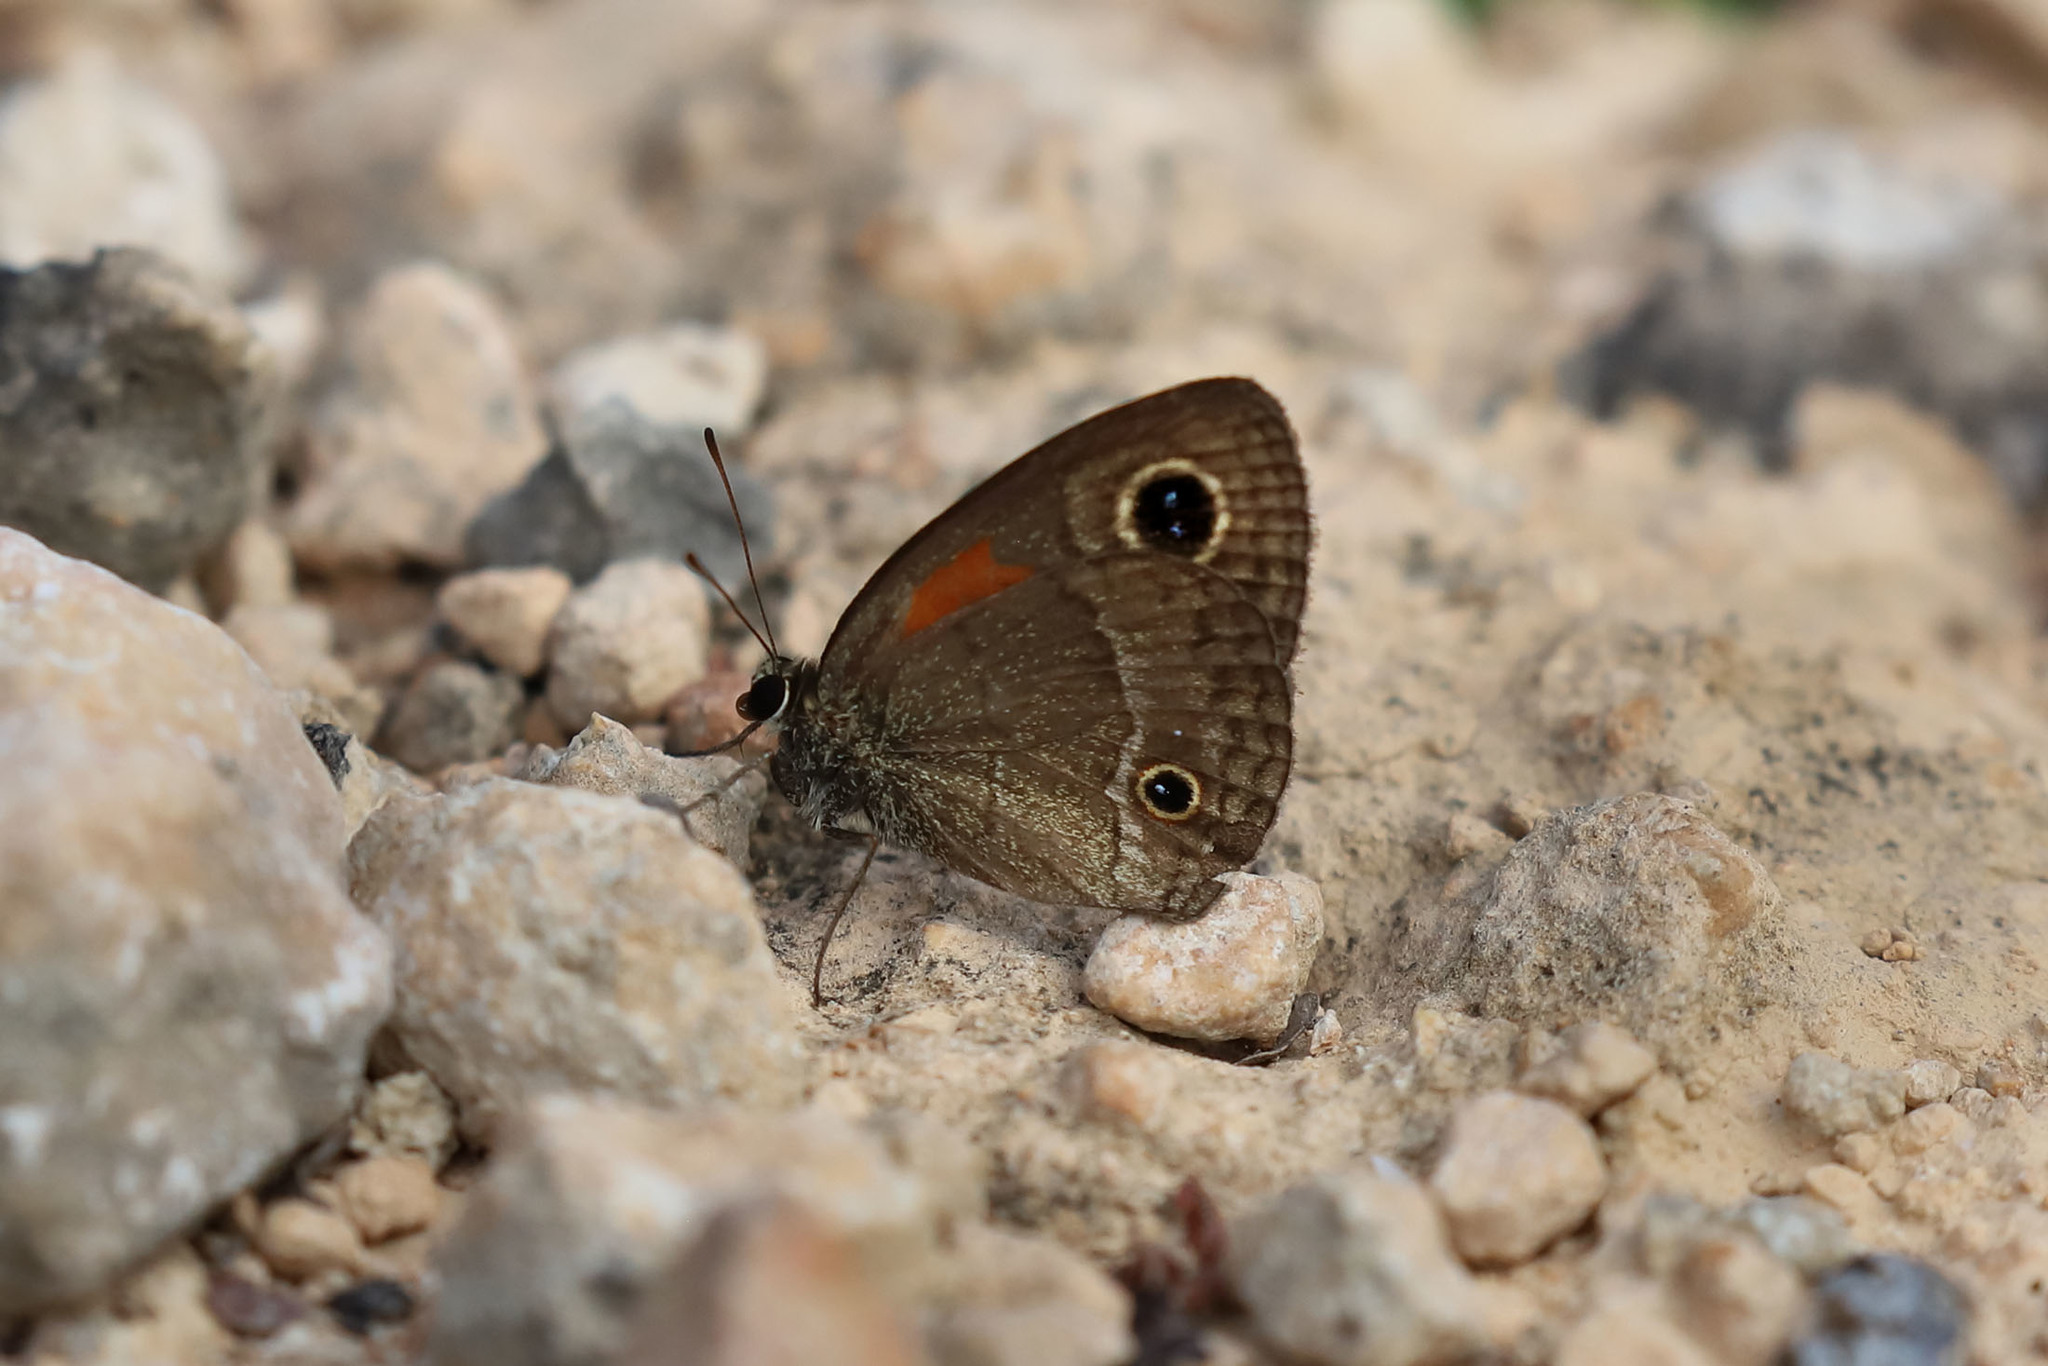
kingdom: Animalia
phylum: Arthropoda
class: Insecta
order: Lepidoptera
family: Nymphalidae
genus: Calisto
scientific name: Calisto obscura
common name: Obscure calisto
